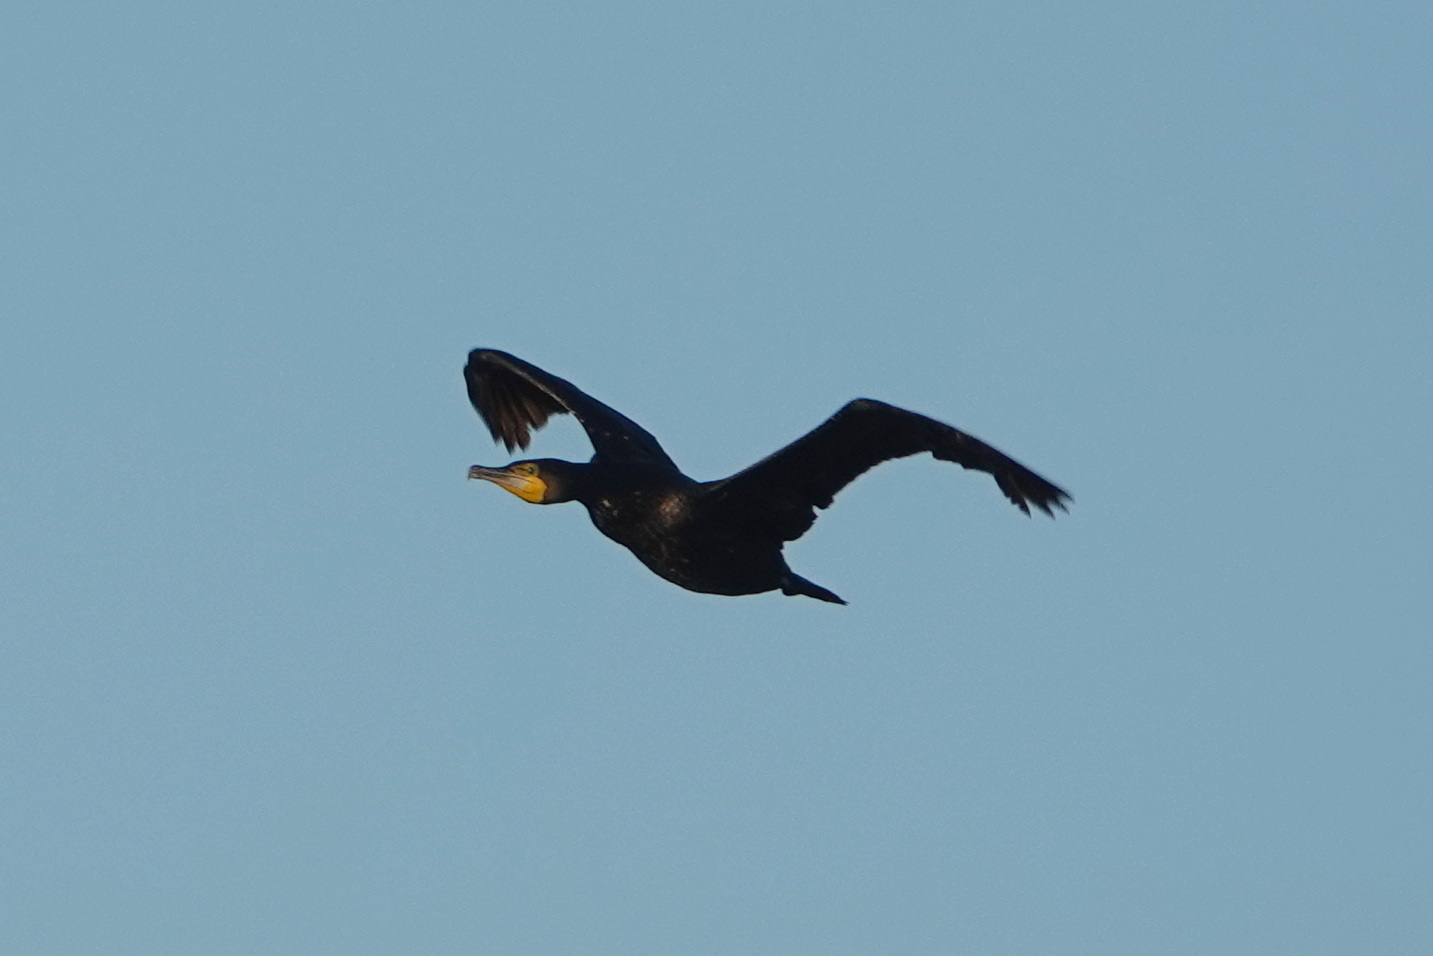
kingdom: Animalia
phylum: Chordata
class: Aves
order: Suliformes
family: Phalacrocoracidae
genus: Phalacrocorax
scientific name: Phalacrocorax carbo
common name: Great cormorant
